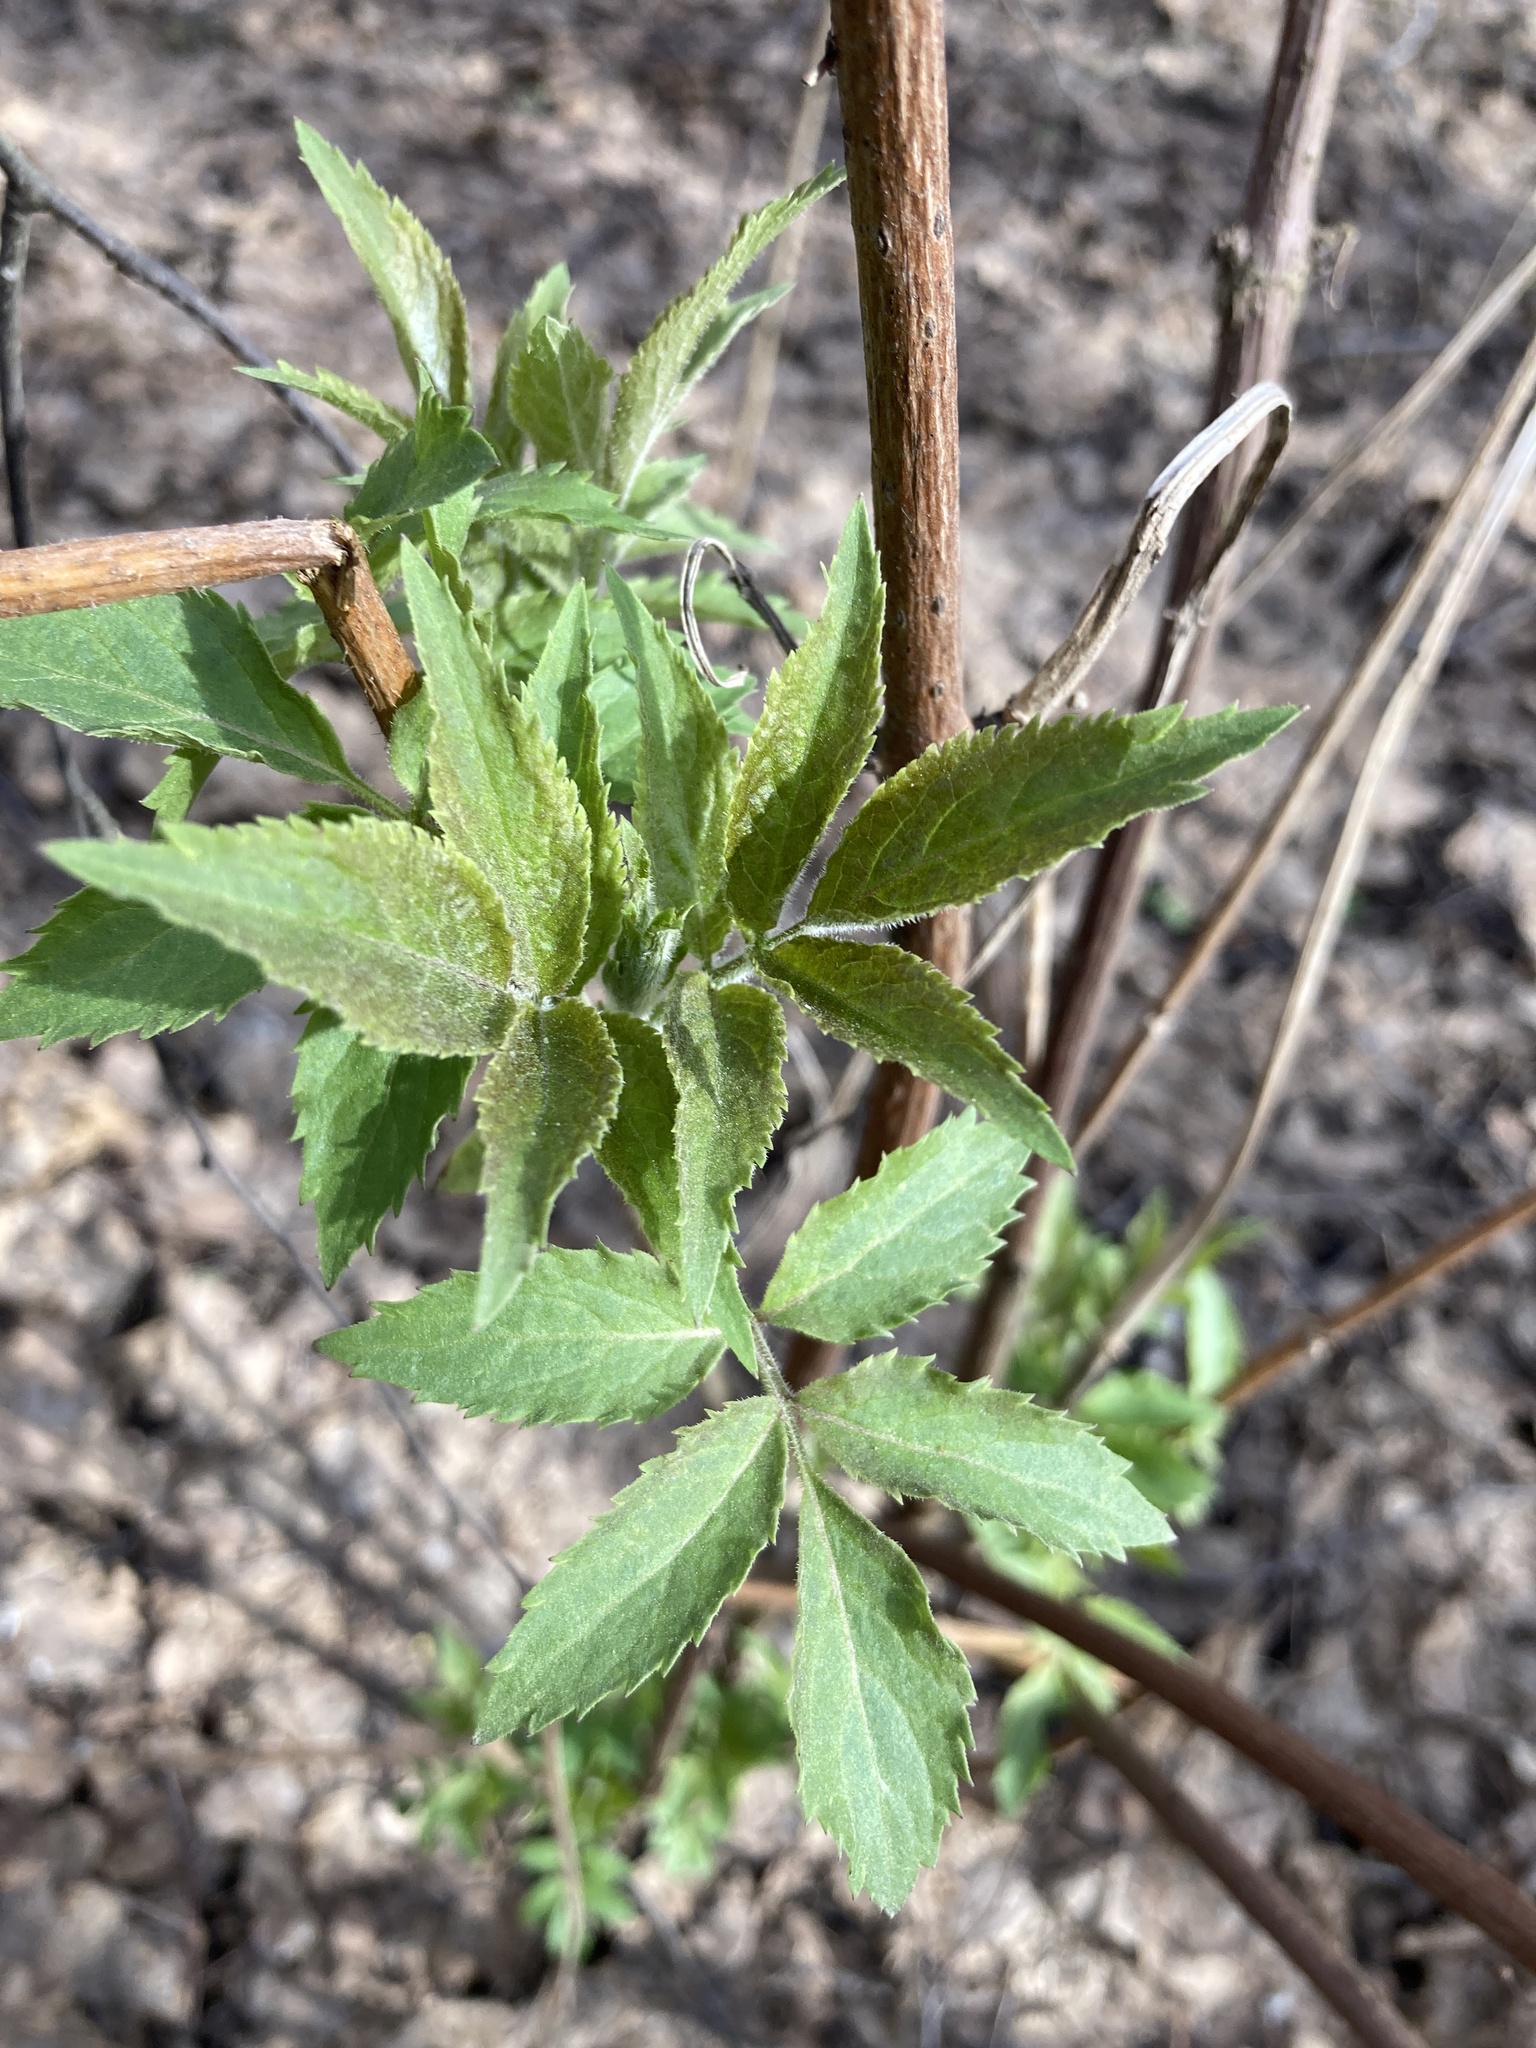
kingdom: Plantae
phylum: Tracheophyta
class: Magnoliopsida
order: Dipsacales
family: Viburnaceae
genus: Sambucus
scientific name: Sambucus racemosa
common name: Red-berried elder
